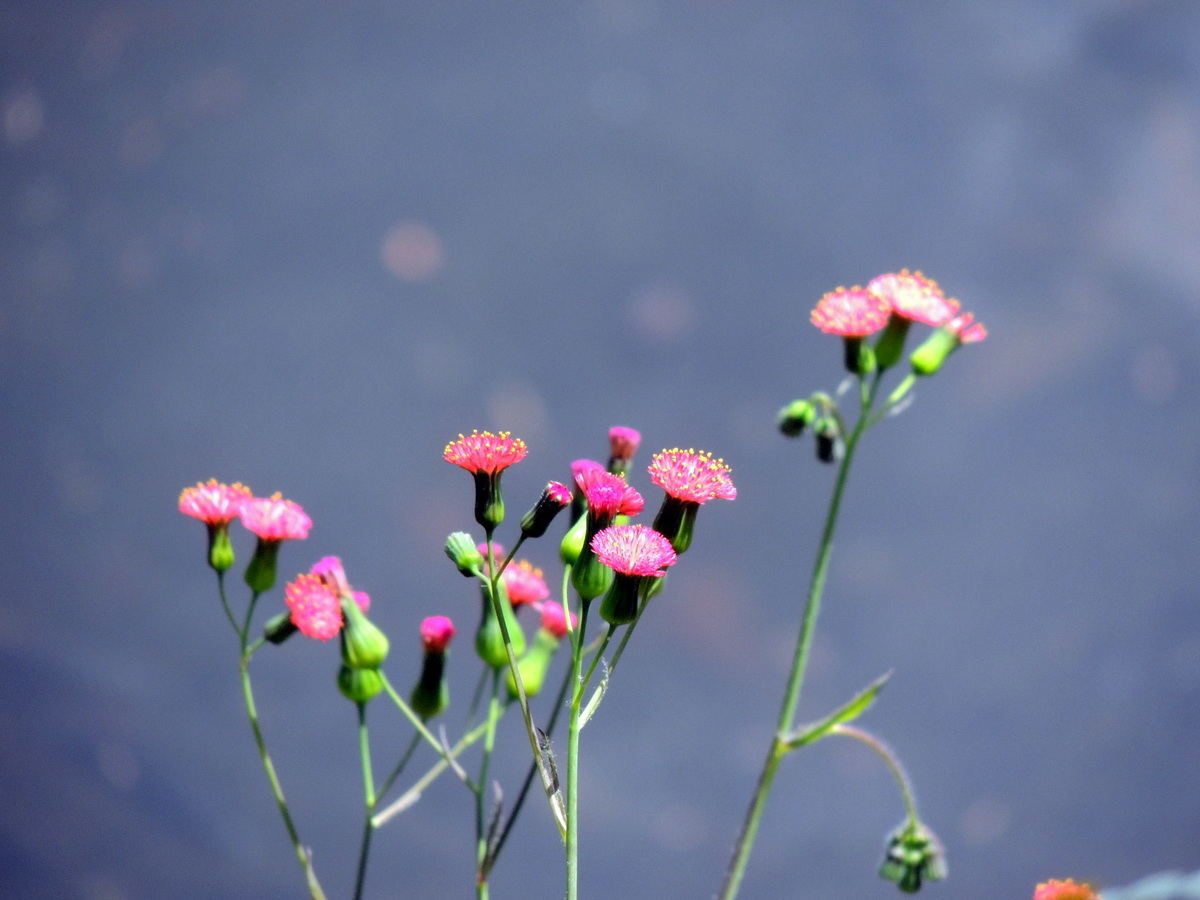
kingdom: Plantae
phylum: Tracheophyta
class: Magnoliopsida
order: Asterales
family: Asteraceae
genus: Emilia
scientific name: Emilia fosbergii
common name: Florida tasselflower
